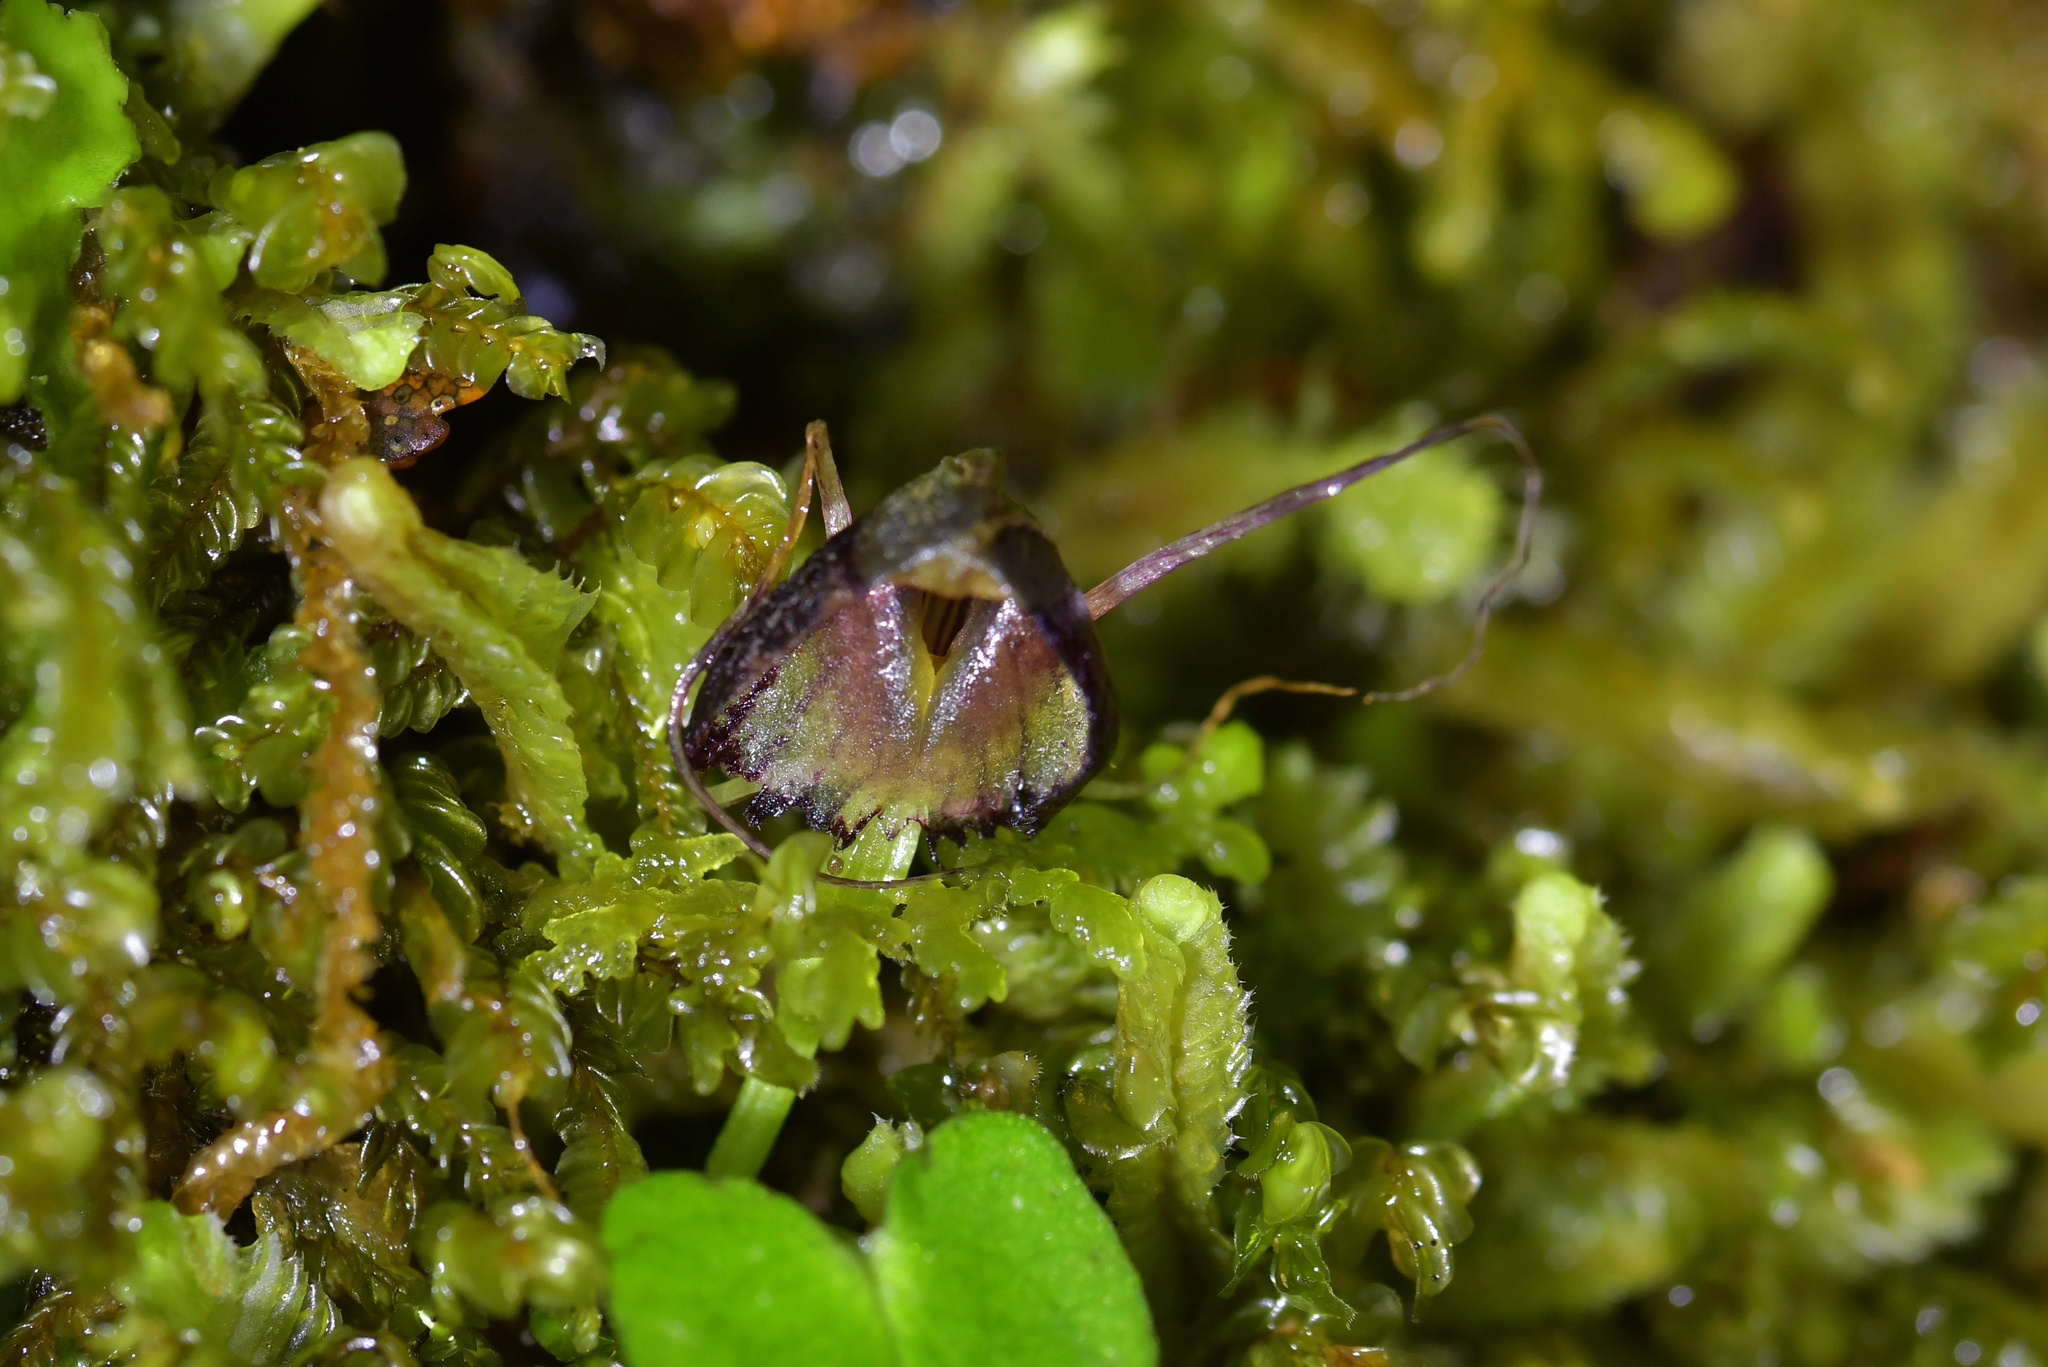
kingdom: Plantae
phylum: Tracheophyta
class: Liliopsida
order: Asparagales
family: Orchidaceae
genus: Corybas
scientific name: Corybas trilobus
